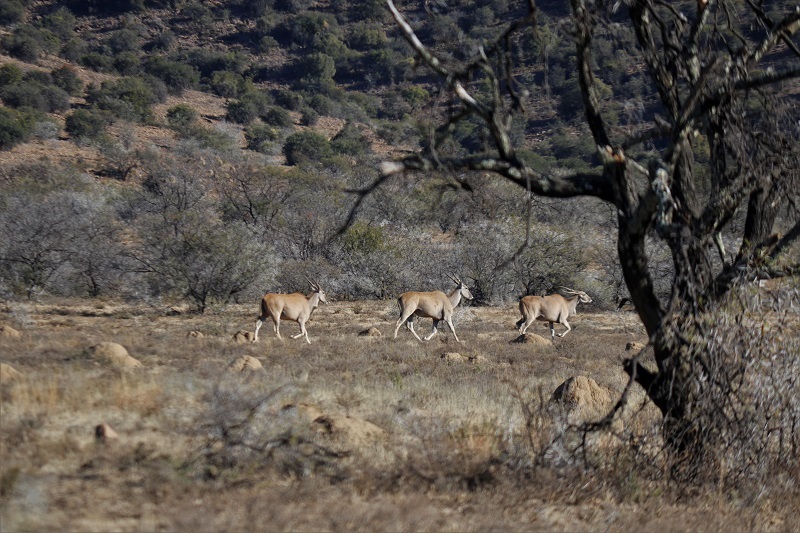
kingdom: Animalia
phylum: Chordata
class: Mammalia
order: Artiodactyla
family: Bovidae
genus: Taurotragus
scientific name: Taurotragus oryx
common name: Common eland
